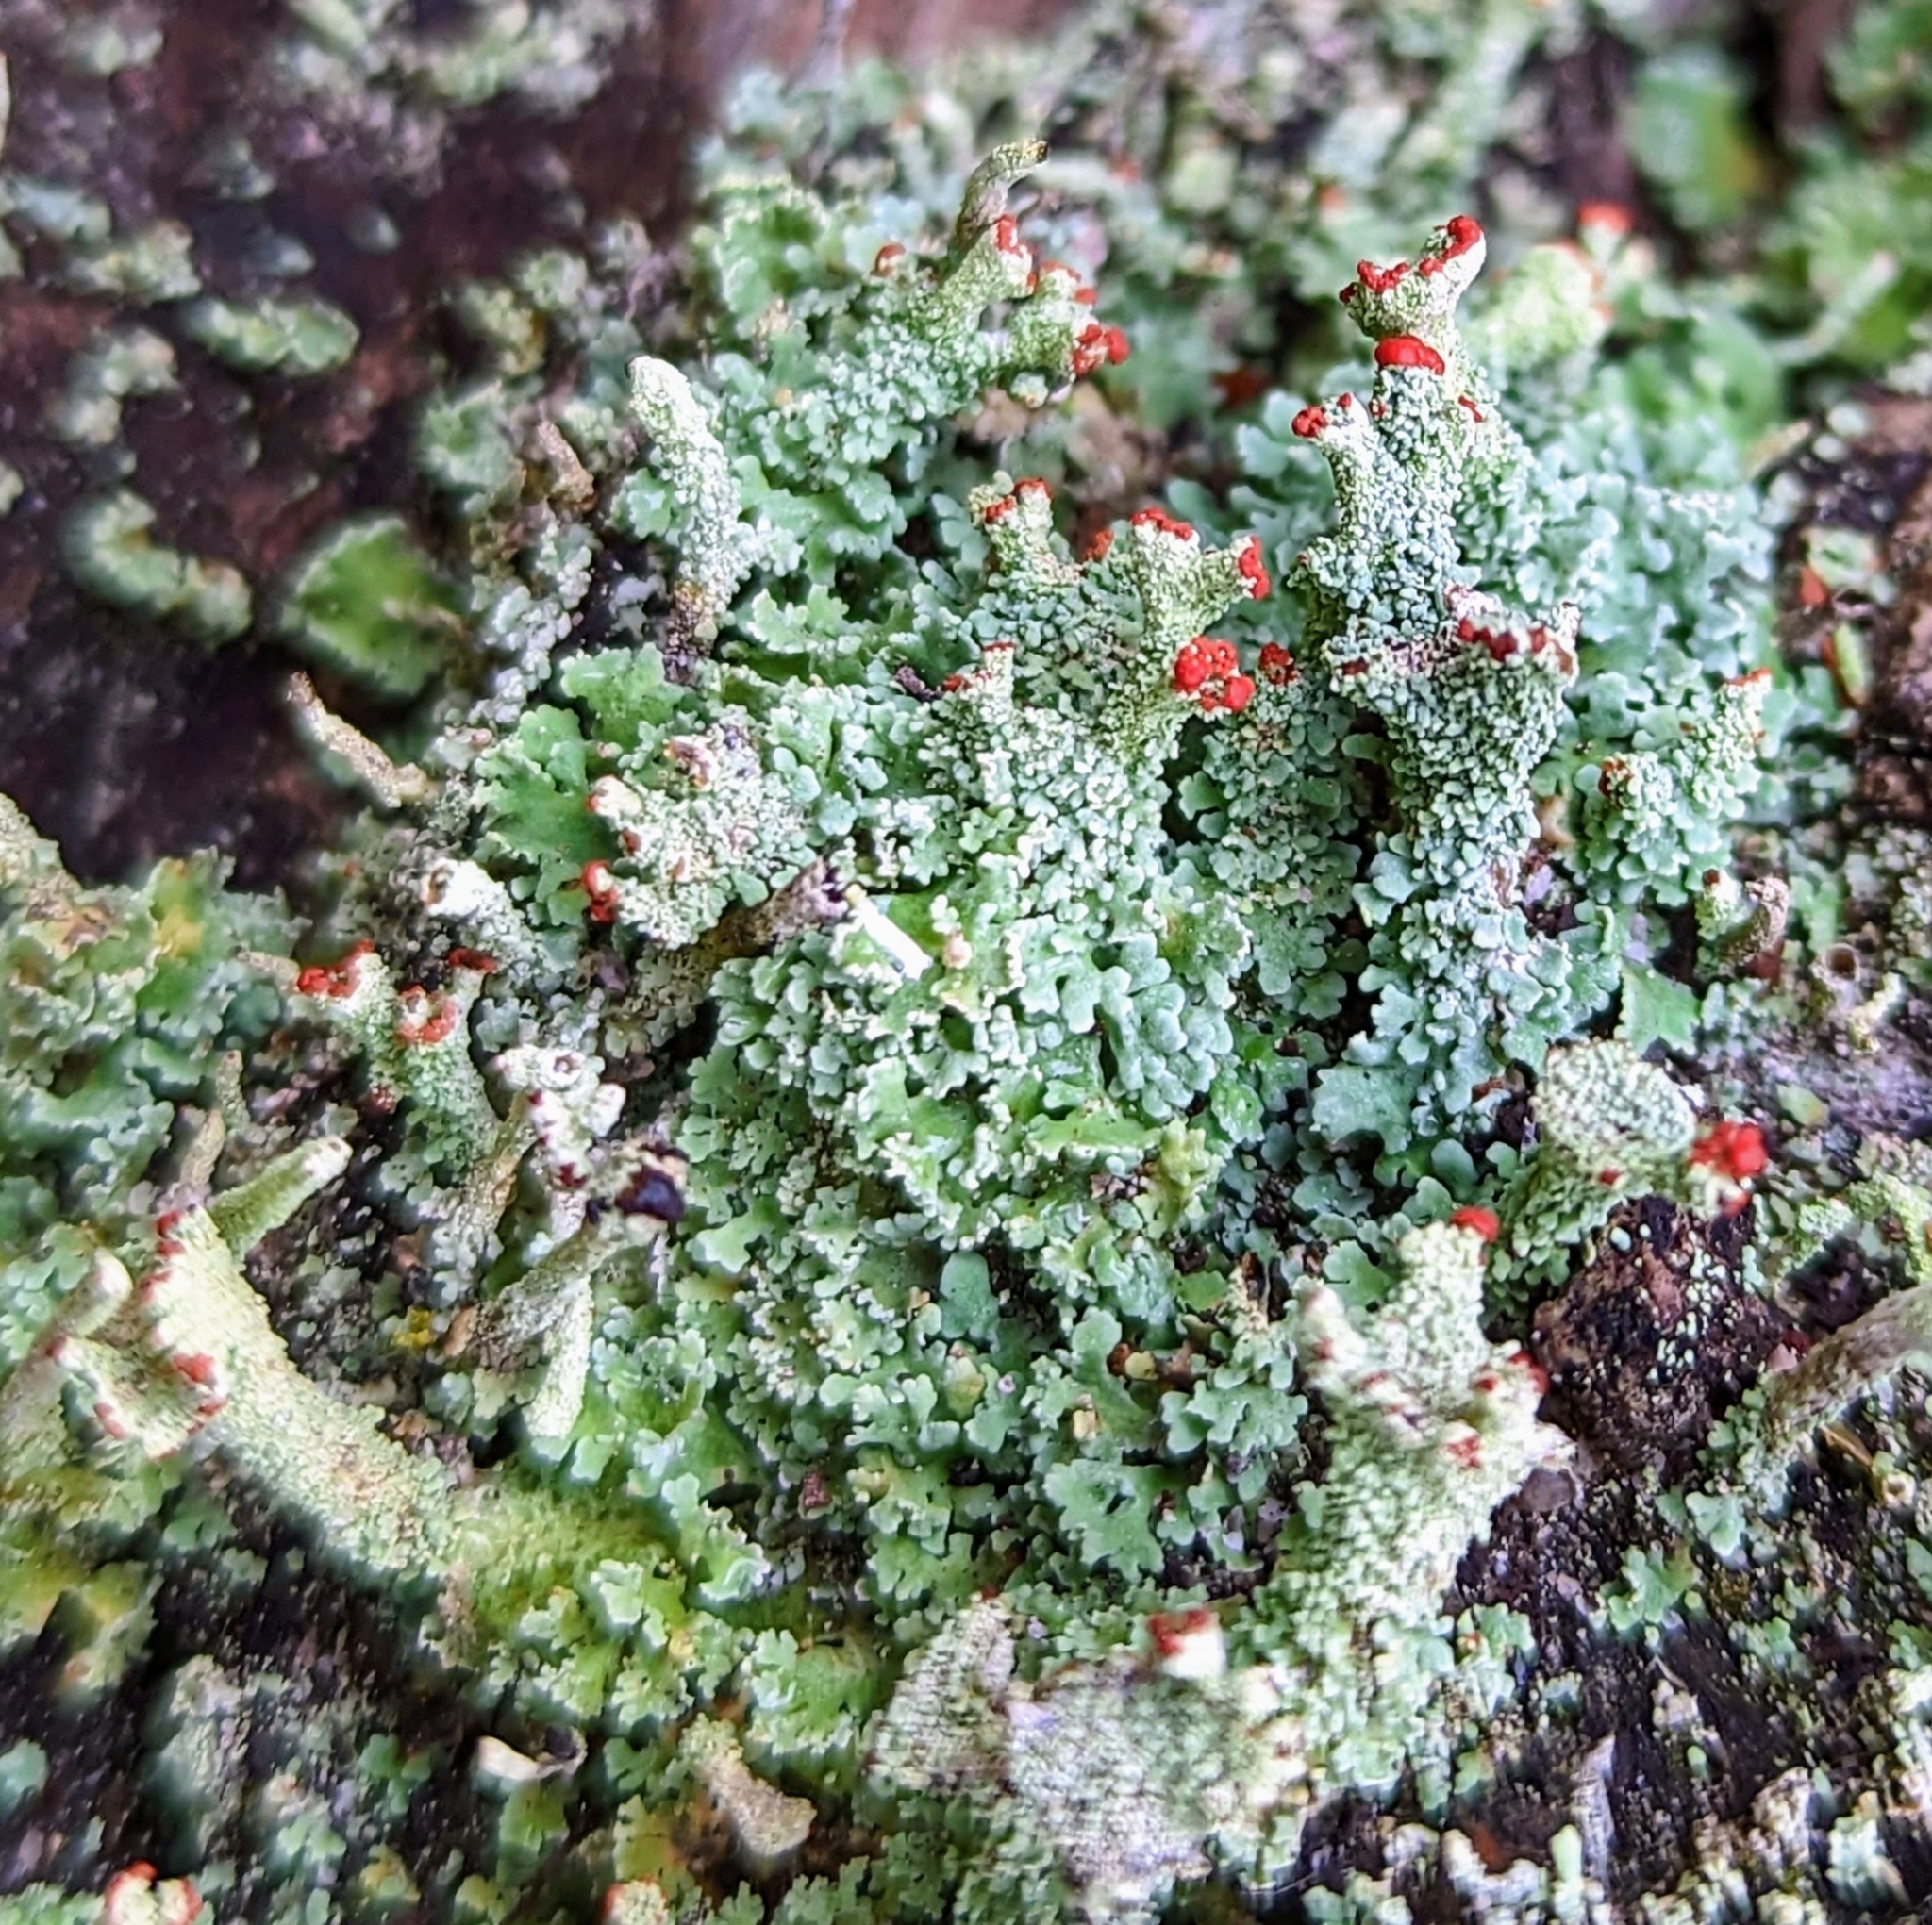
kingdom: Fungi
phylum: Ascomycota
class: Lecanoromycetes
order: Lecanorales
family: Cladoniaceae
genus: Cladonia
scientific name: Cladonia bellidiflora
